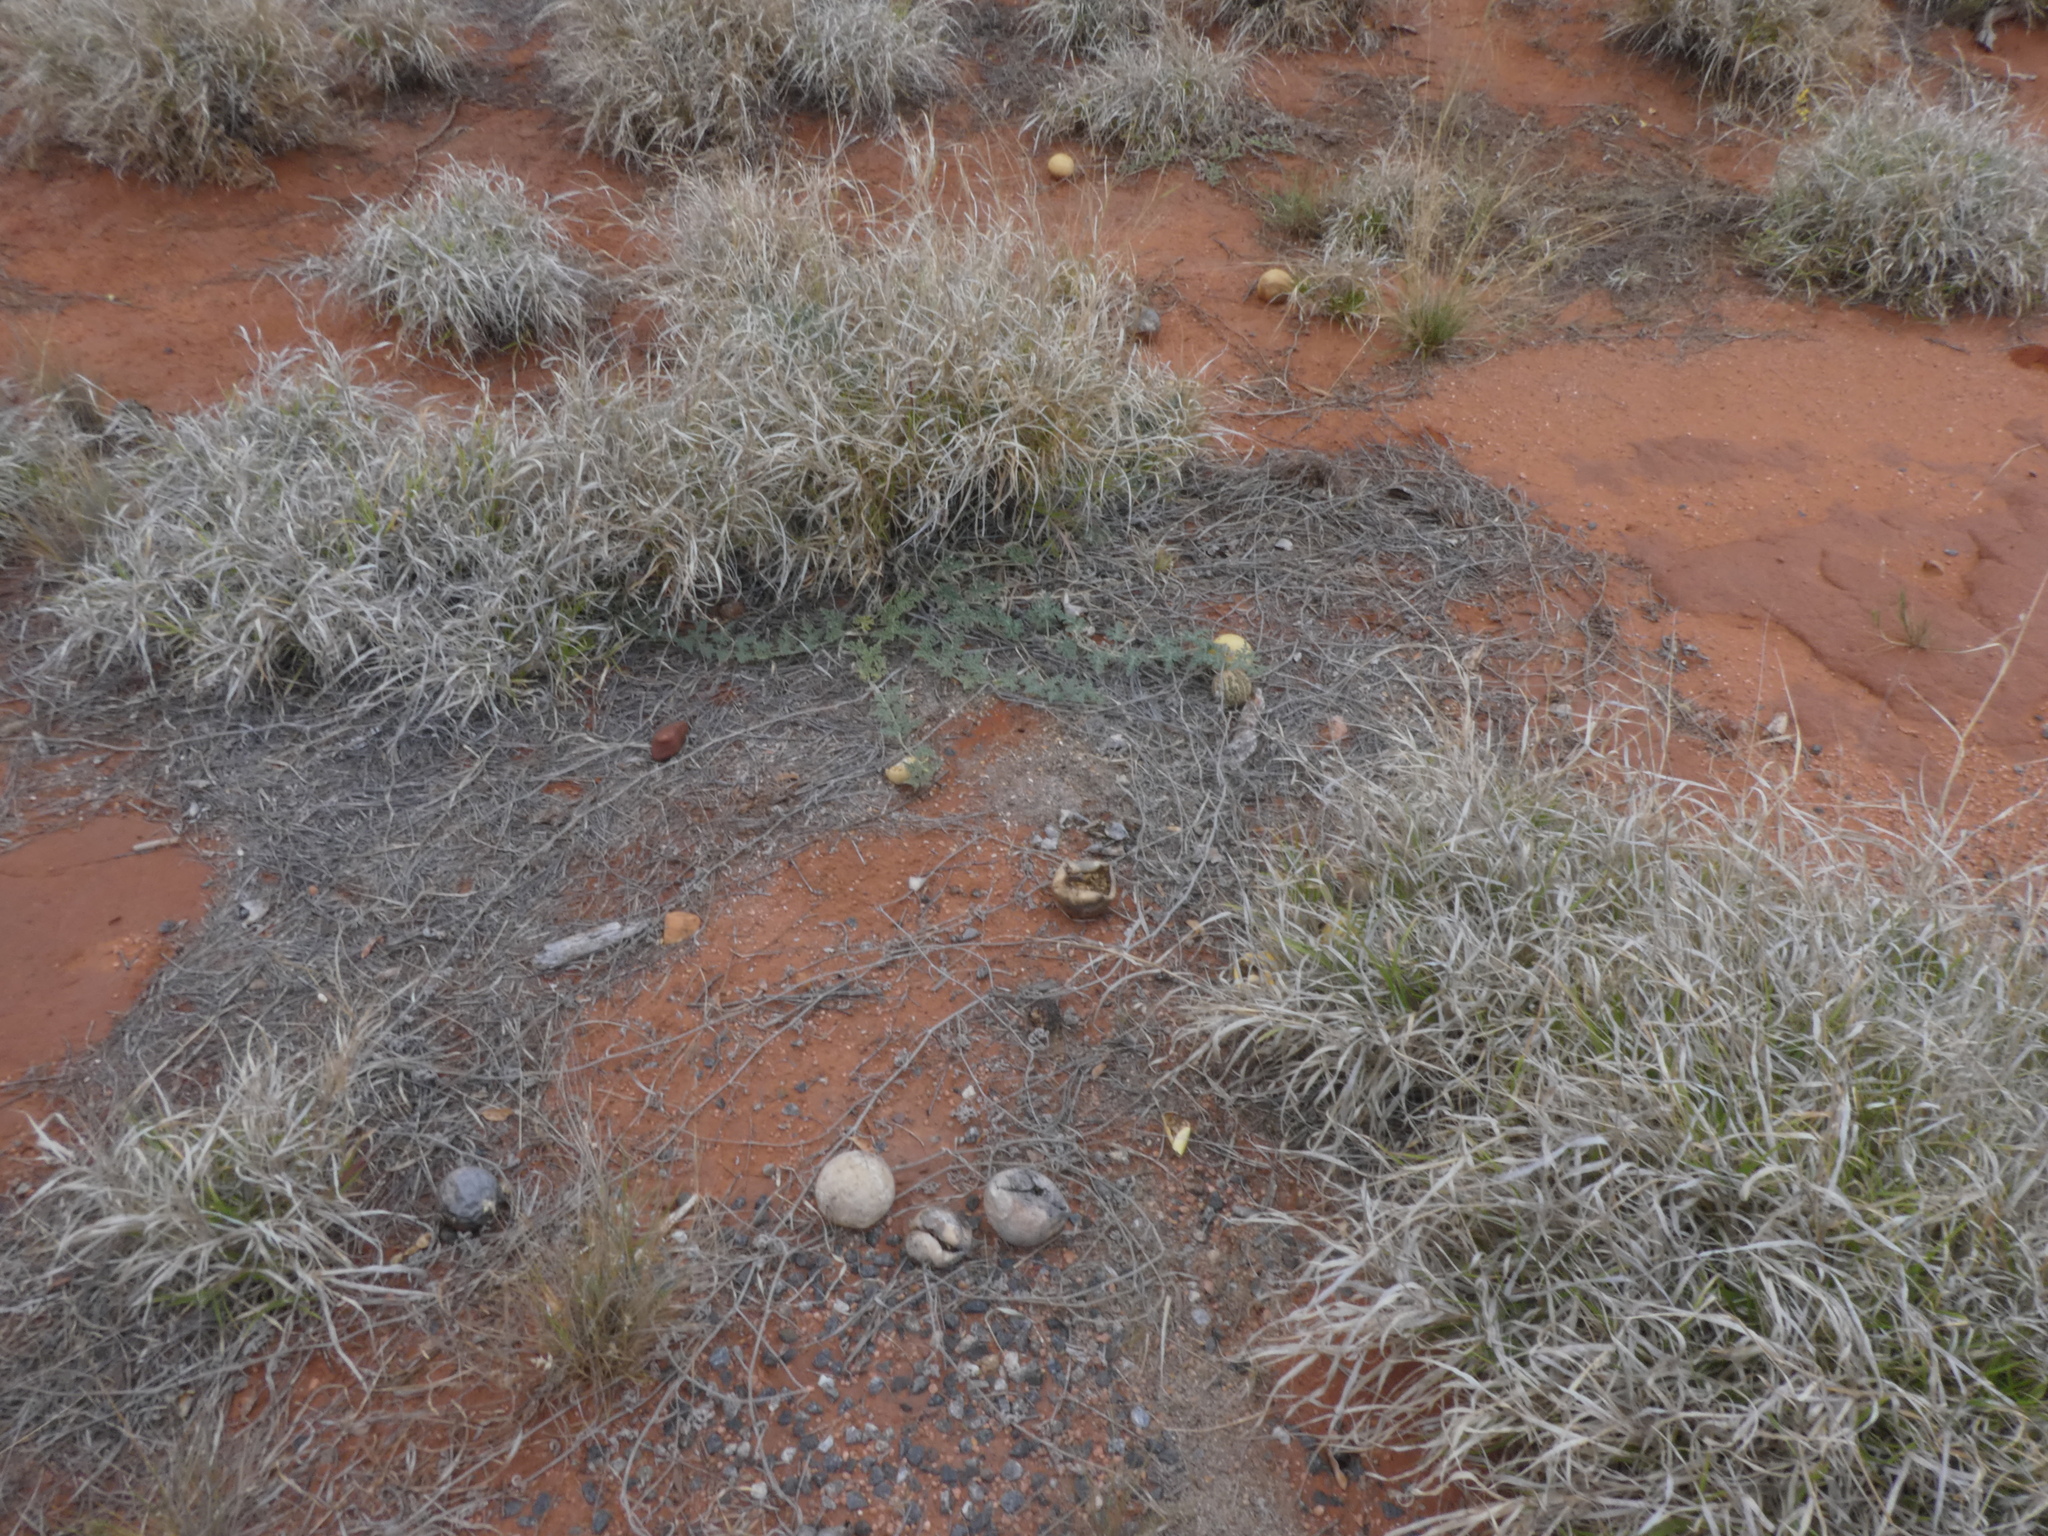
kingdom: Plantae
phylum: Tracheophyta
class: Magnoliopsida
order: Cucurbitales
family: Cucurbitaceae
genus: Citrullus
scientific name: Citrullus amarus
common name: Fodder-melon
